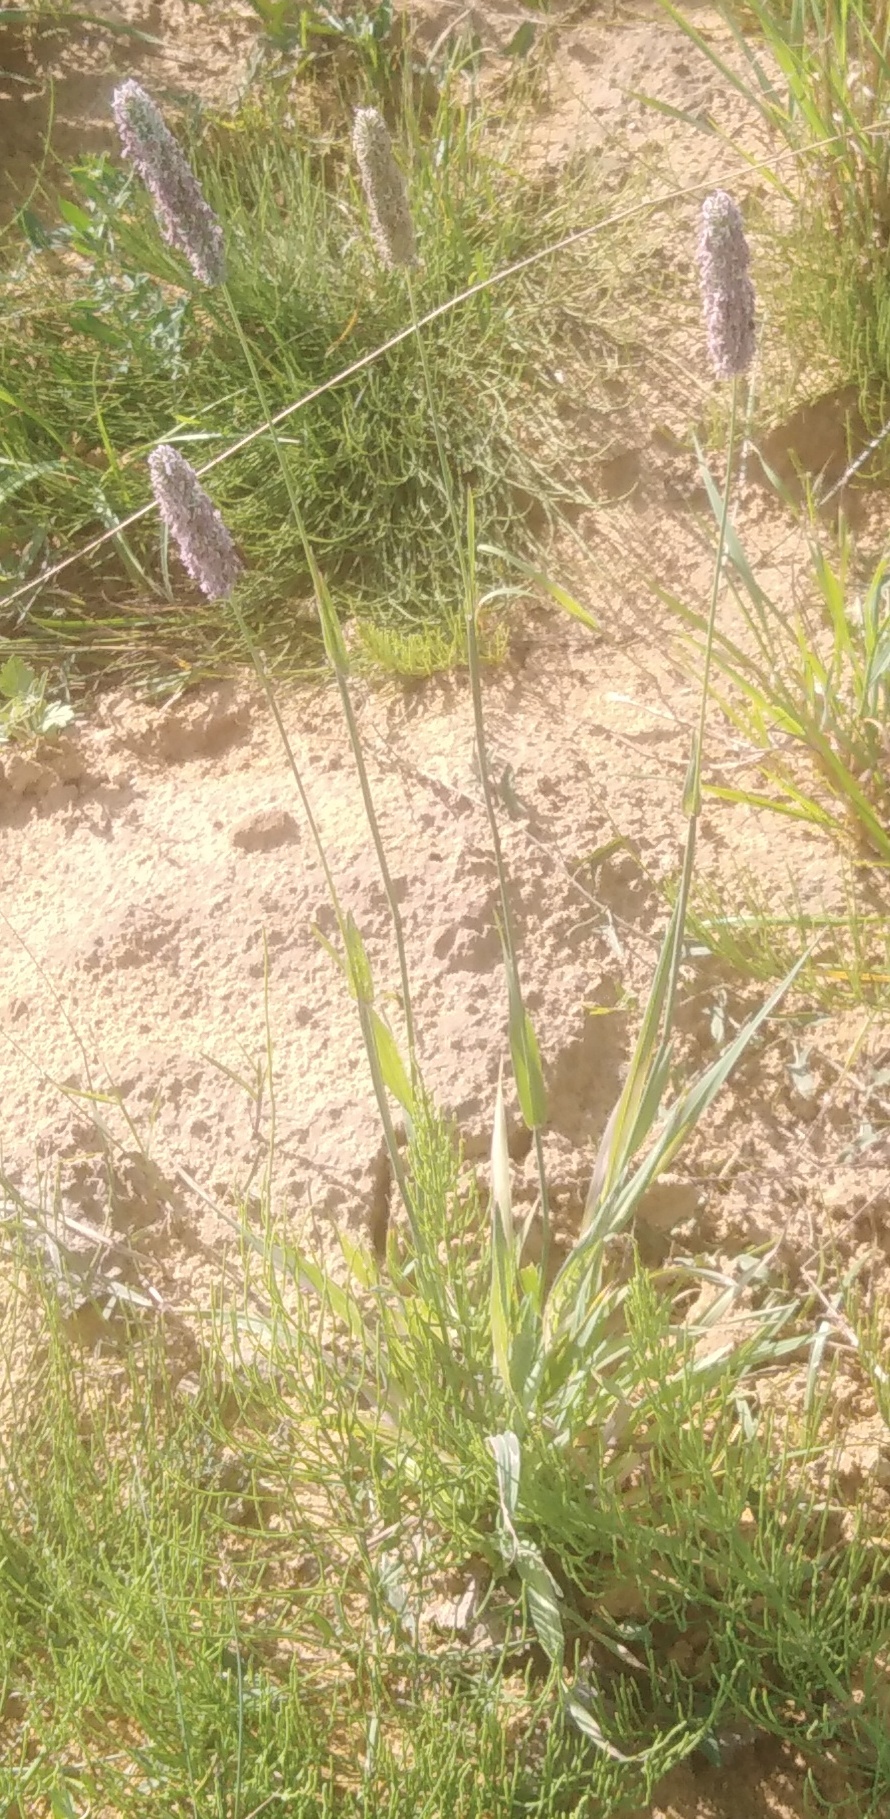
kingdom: Plantae
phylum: Tracheophyta
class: Liliopsida
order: Poales
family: Poaceae
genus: Alopecurus
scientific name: Alopecurus pratensis
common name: Meadow foxtail
